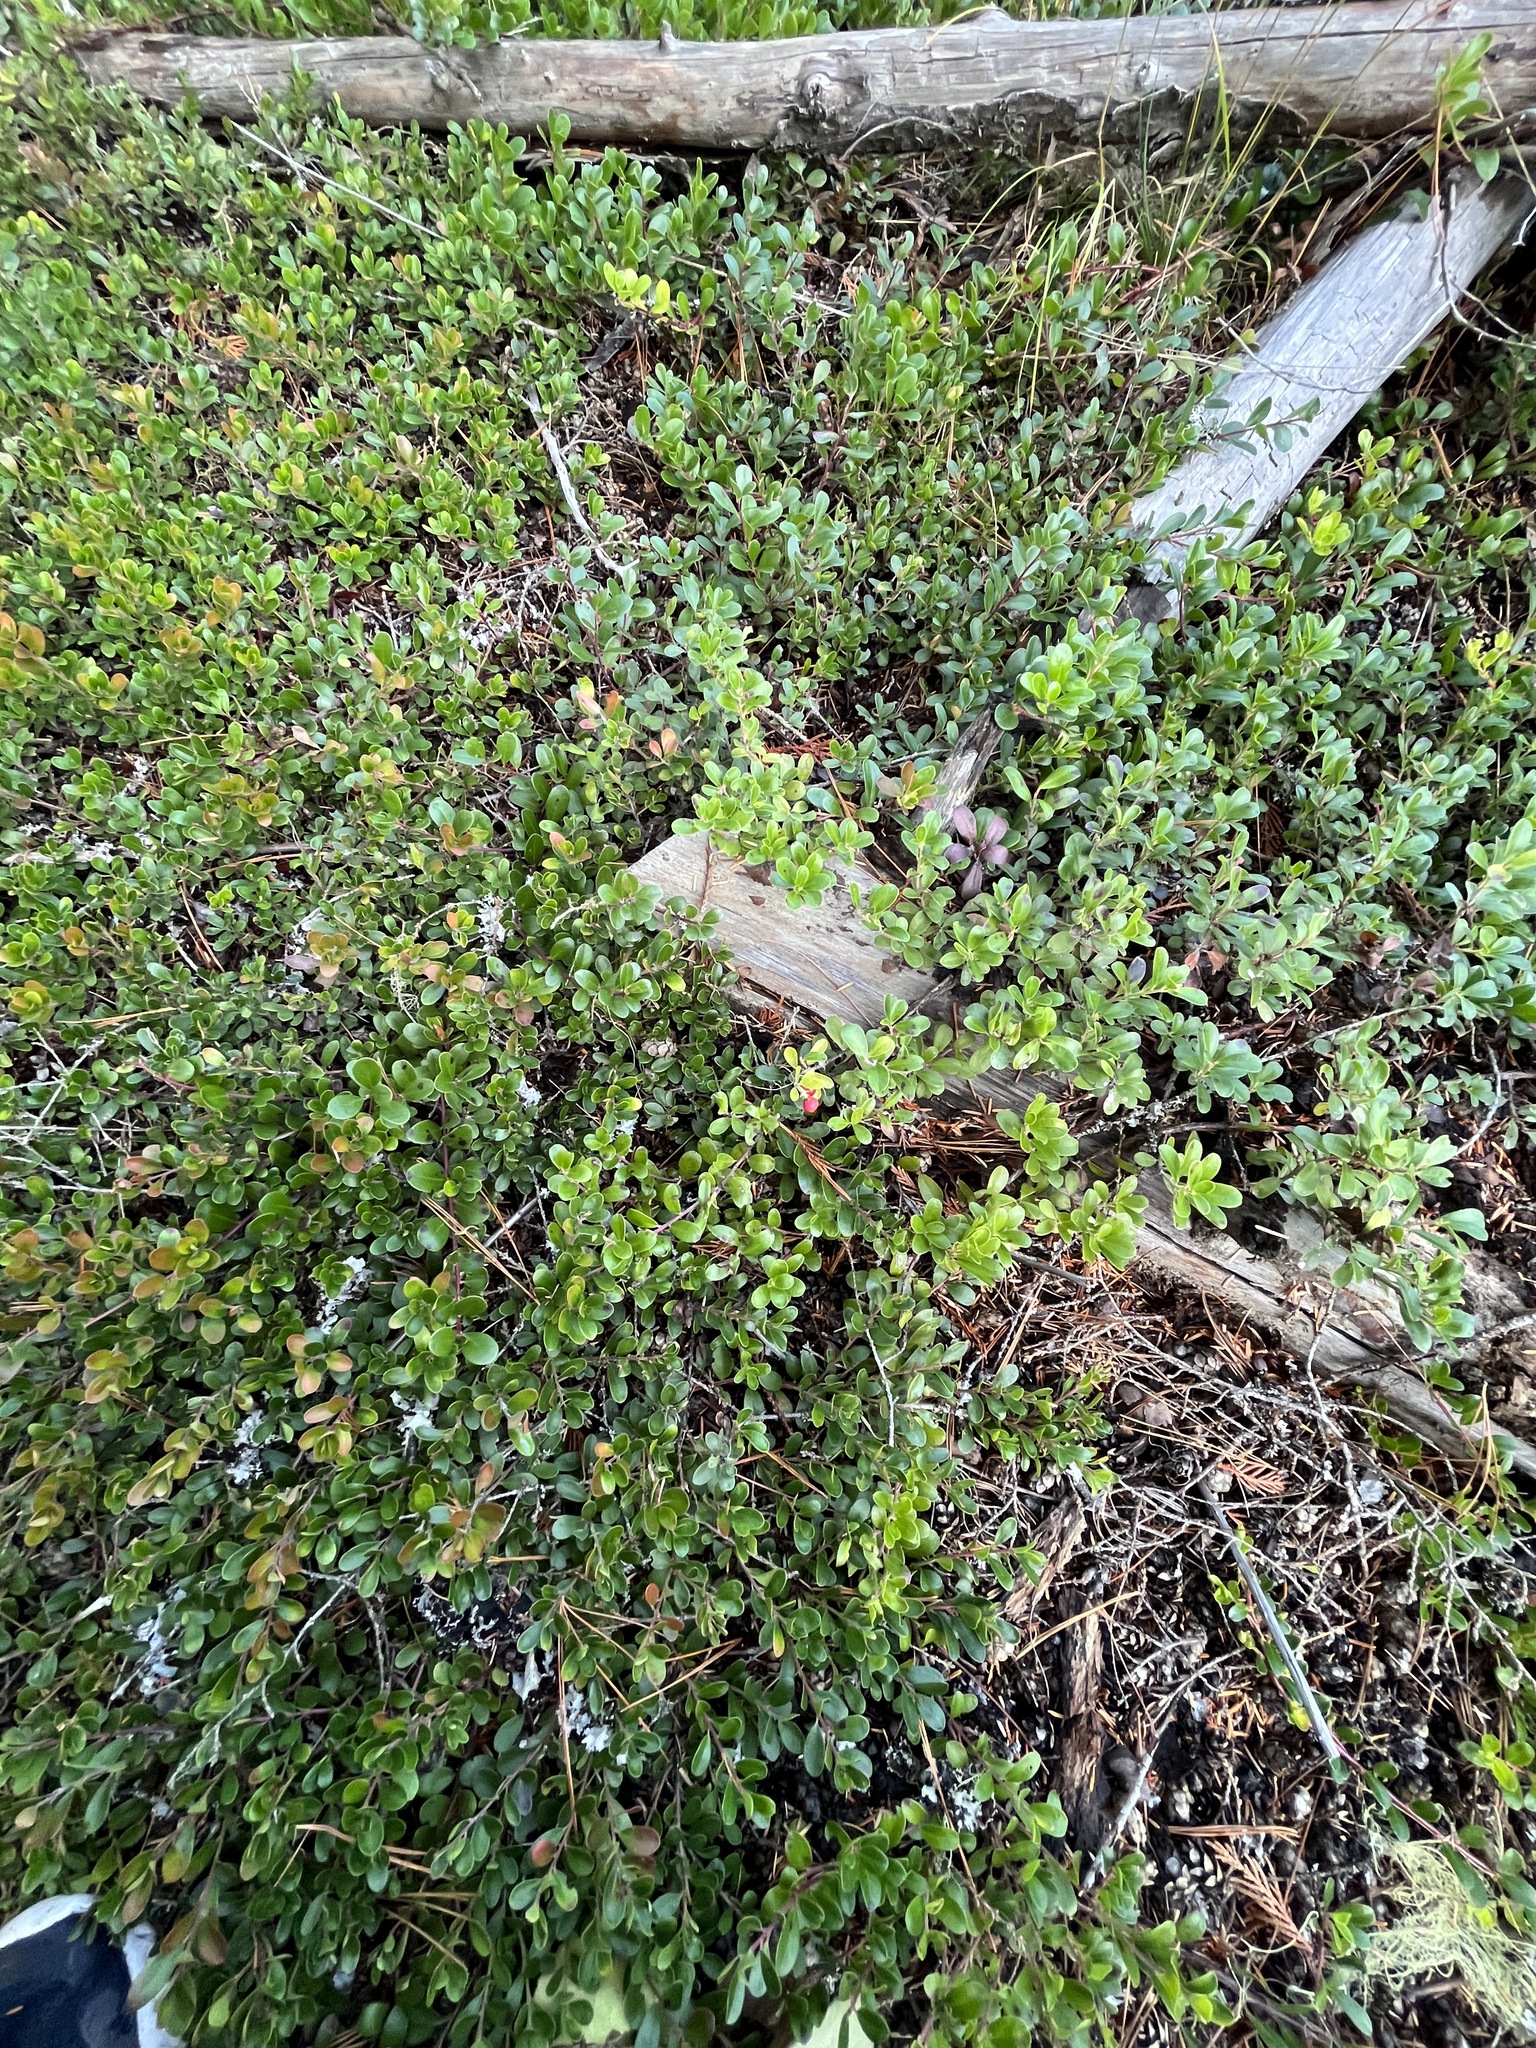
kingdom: Plantae
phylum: Tracheophyta
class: Magnoliopsida
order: Ericales
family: Ericaceae
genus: Arctostaphylos
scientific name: Arctostaphylos uva-ursi
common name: Bearberry
